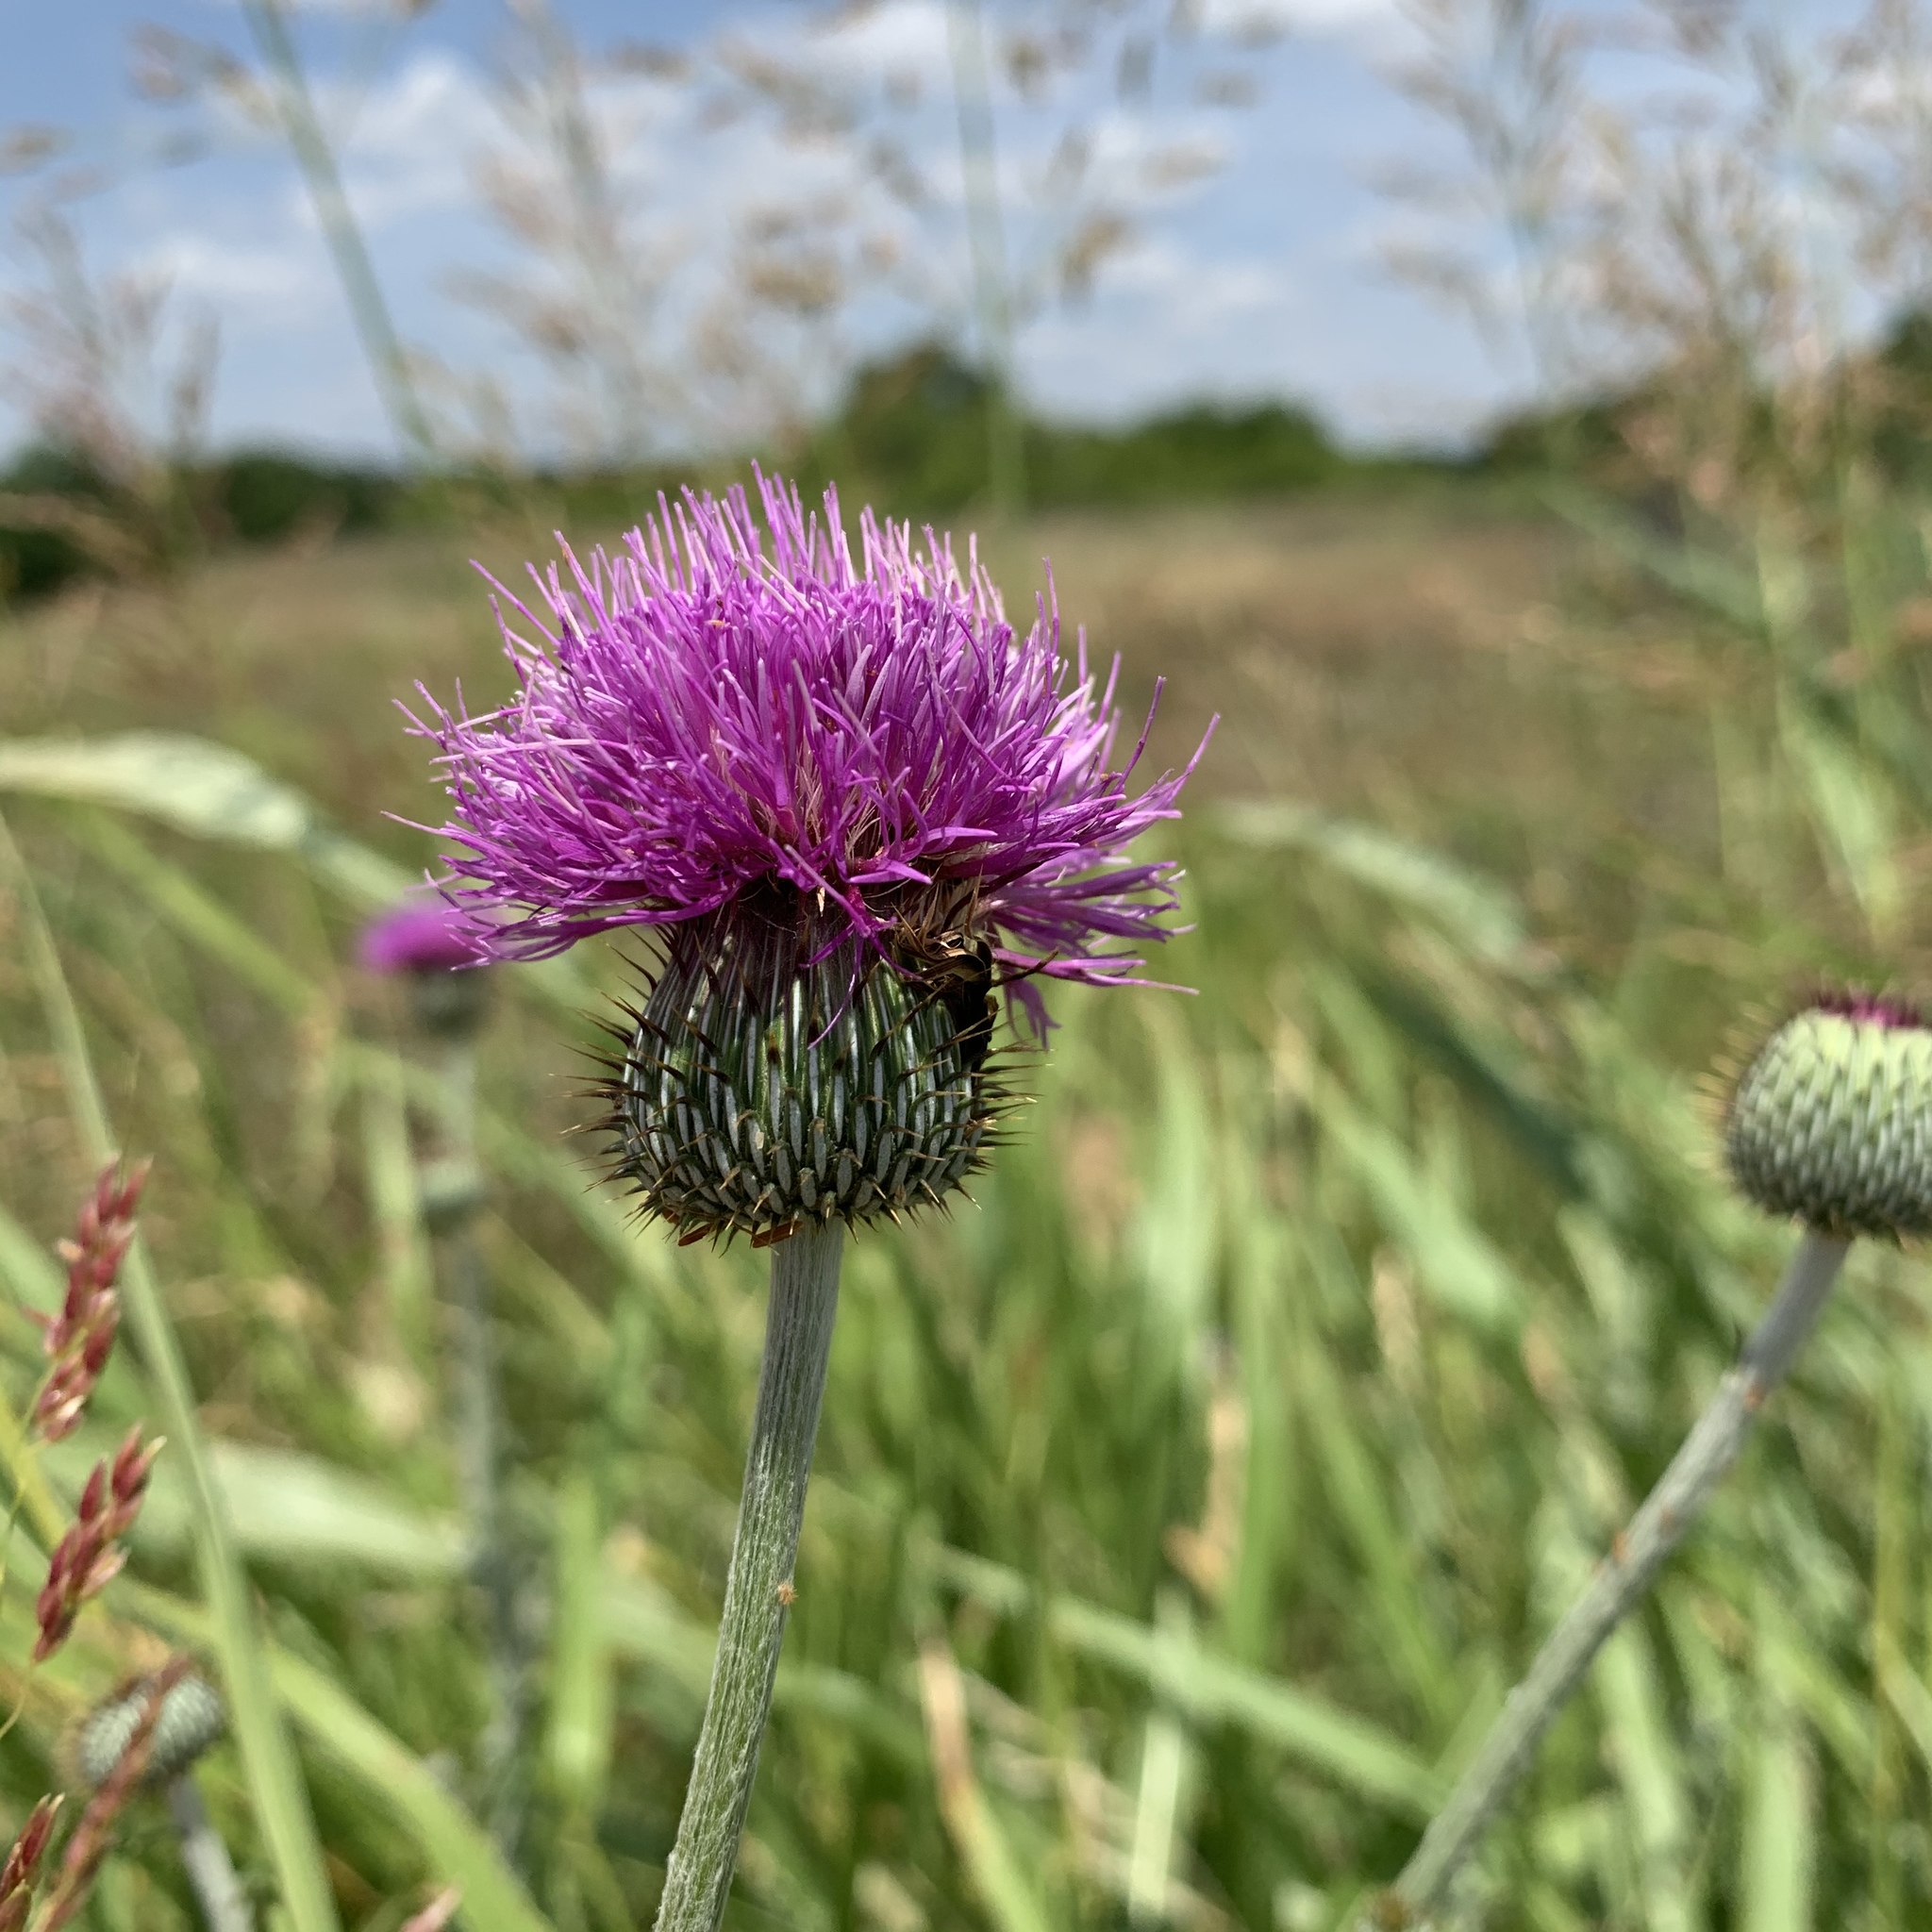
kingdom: Plantae
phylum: Tracheophyta
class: Magnoliopsida
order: Asterales
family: Asteraceae
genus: Cirsium
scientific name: Cirsium texanum
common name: Texas purple thistle
